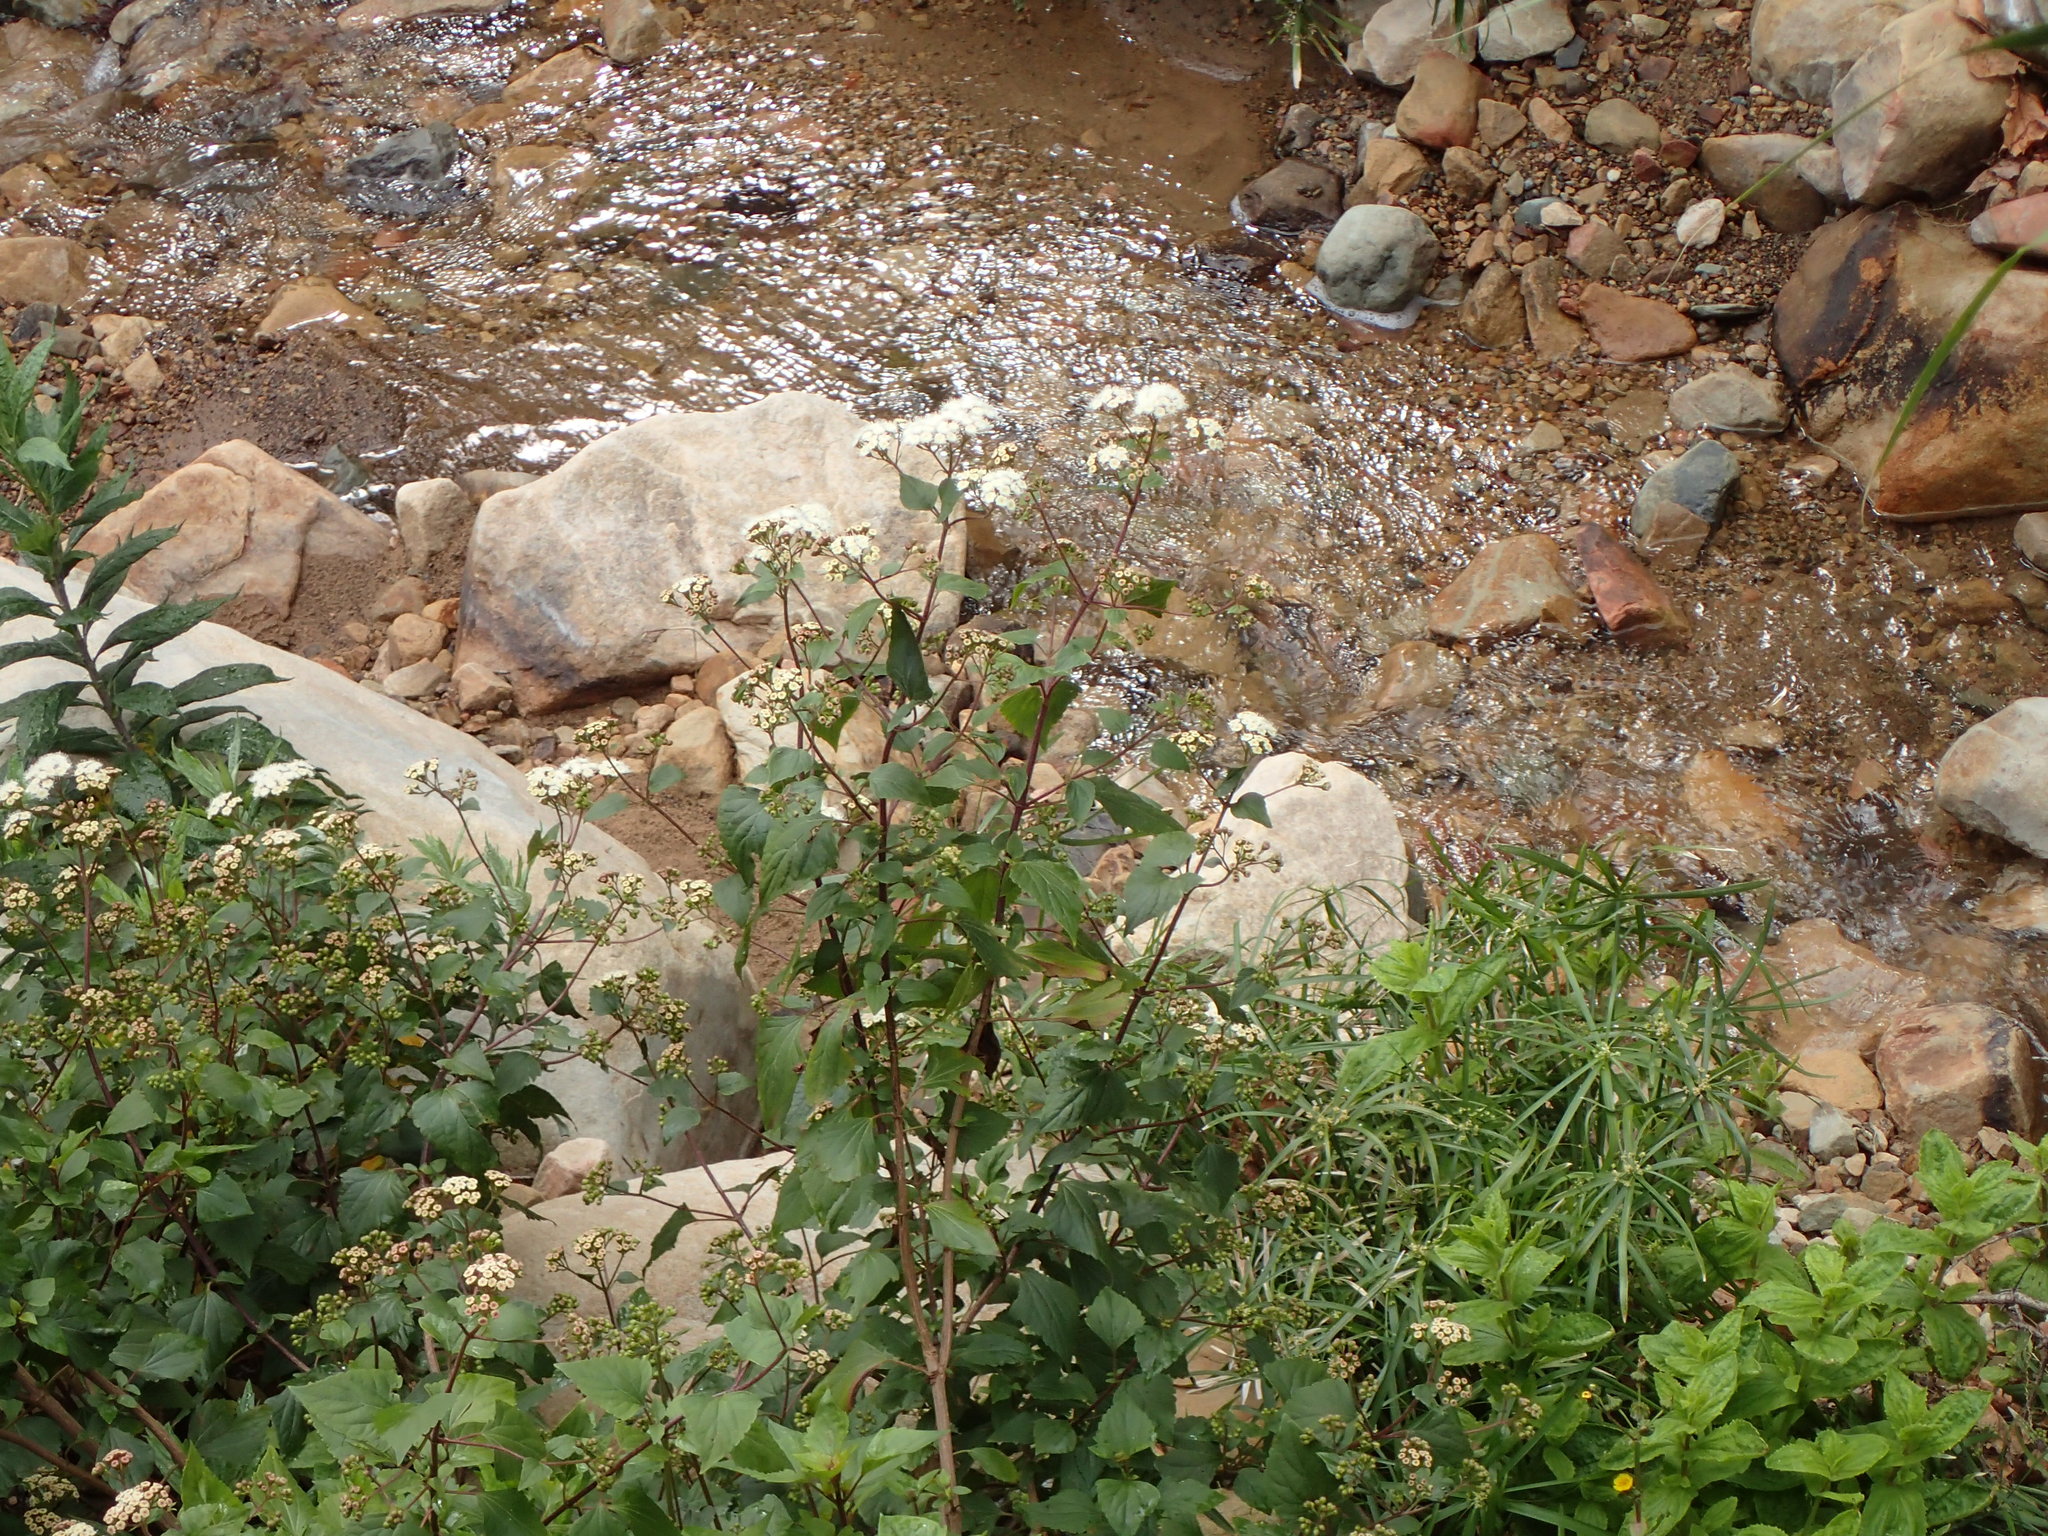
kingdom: Plantae
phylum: Tracheophyta
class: Magnoliopsida
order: Asterales
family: Asteraceae
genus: Ageratina
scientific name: Ageratina adenophora
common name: Sticky snakeroot
